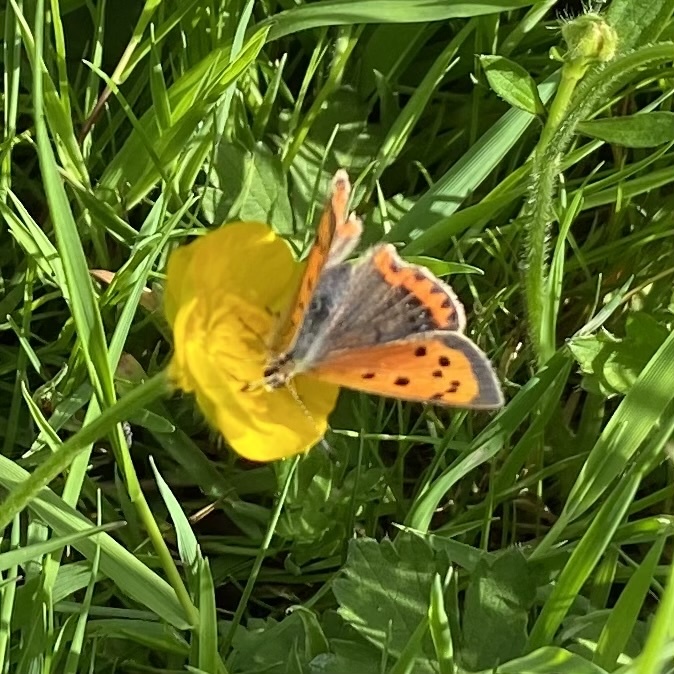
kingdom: Animalia
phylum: Arthropoda
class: Insecta
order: Lepidoptera
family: Lycaenidae
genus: Lycaena
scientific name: Lycaena phlaeas
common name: Small copper
